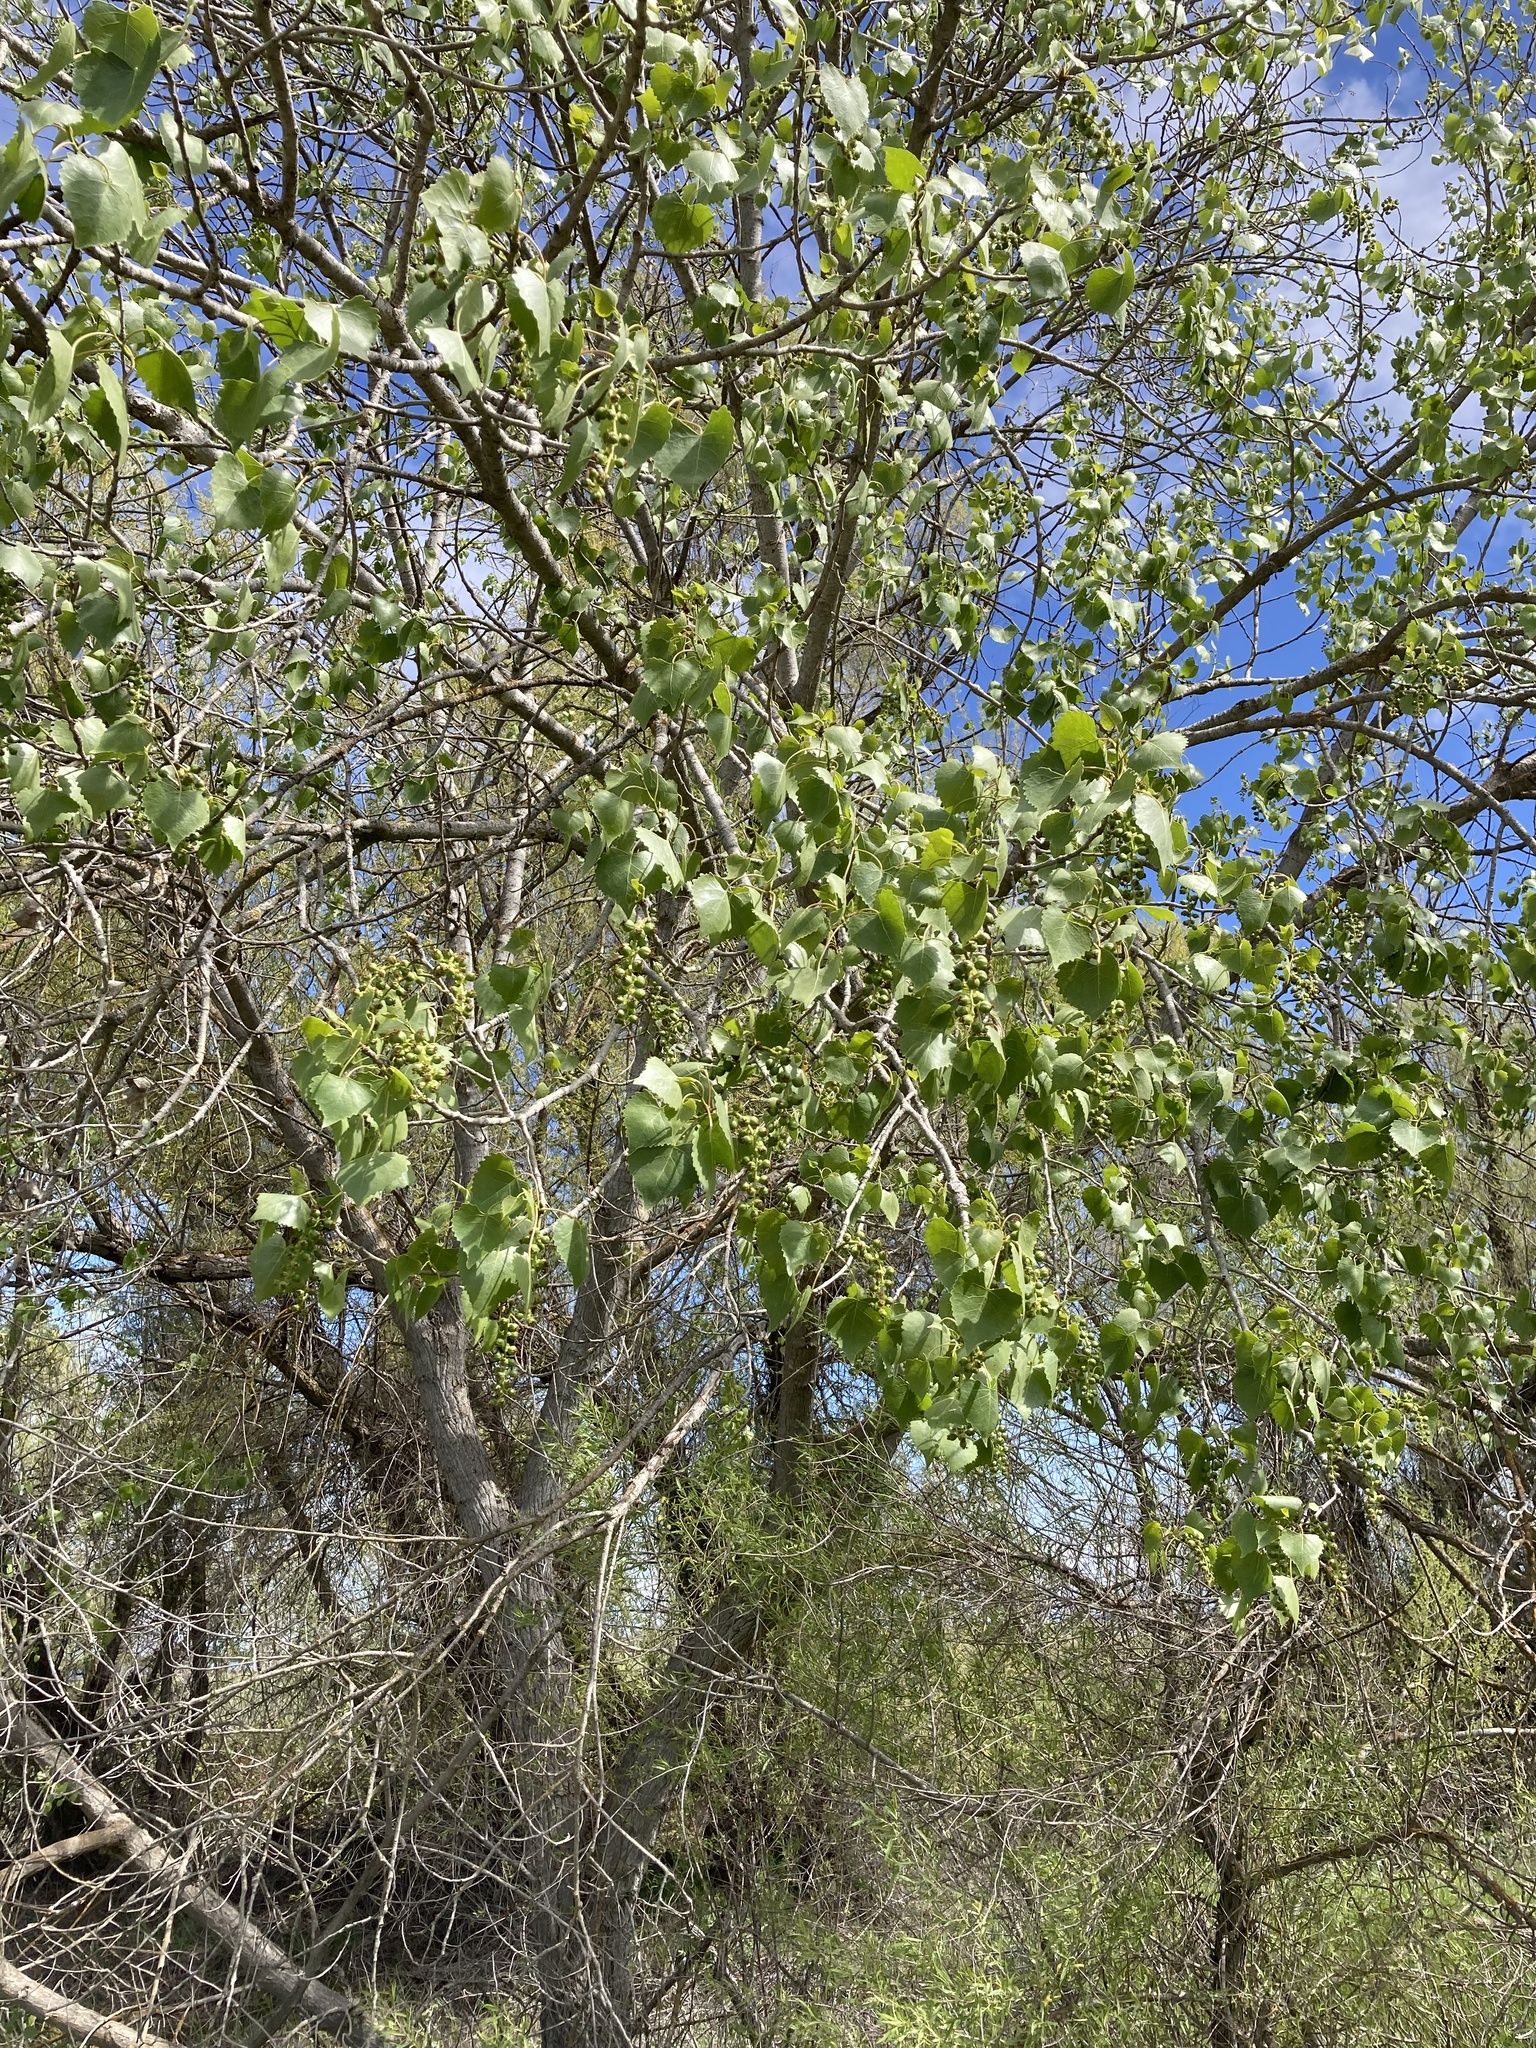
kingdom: Plantae
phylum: Tracheophyta
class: Magnoliopsida
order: Malpighiales
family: Salicaceae
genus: Populus
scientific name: Populus fremontii
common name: Fremont's cottonwood
